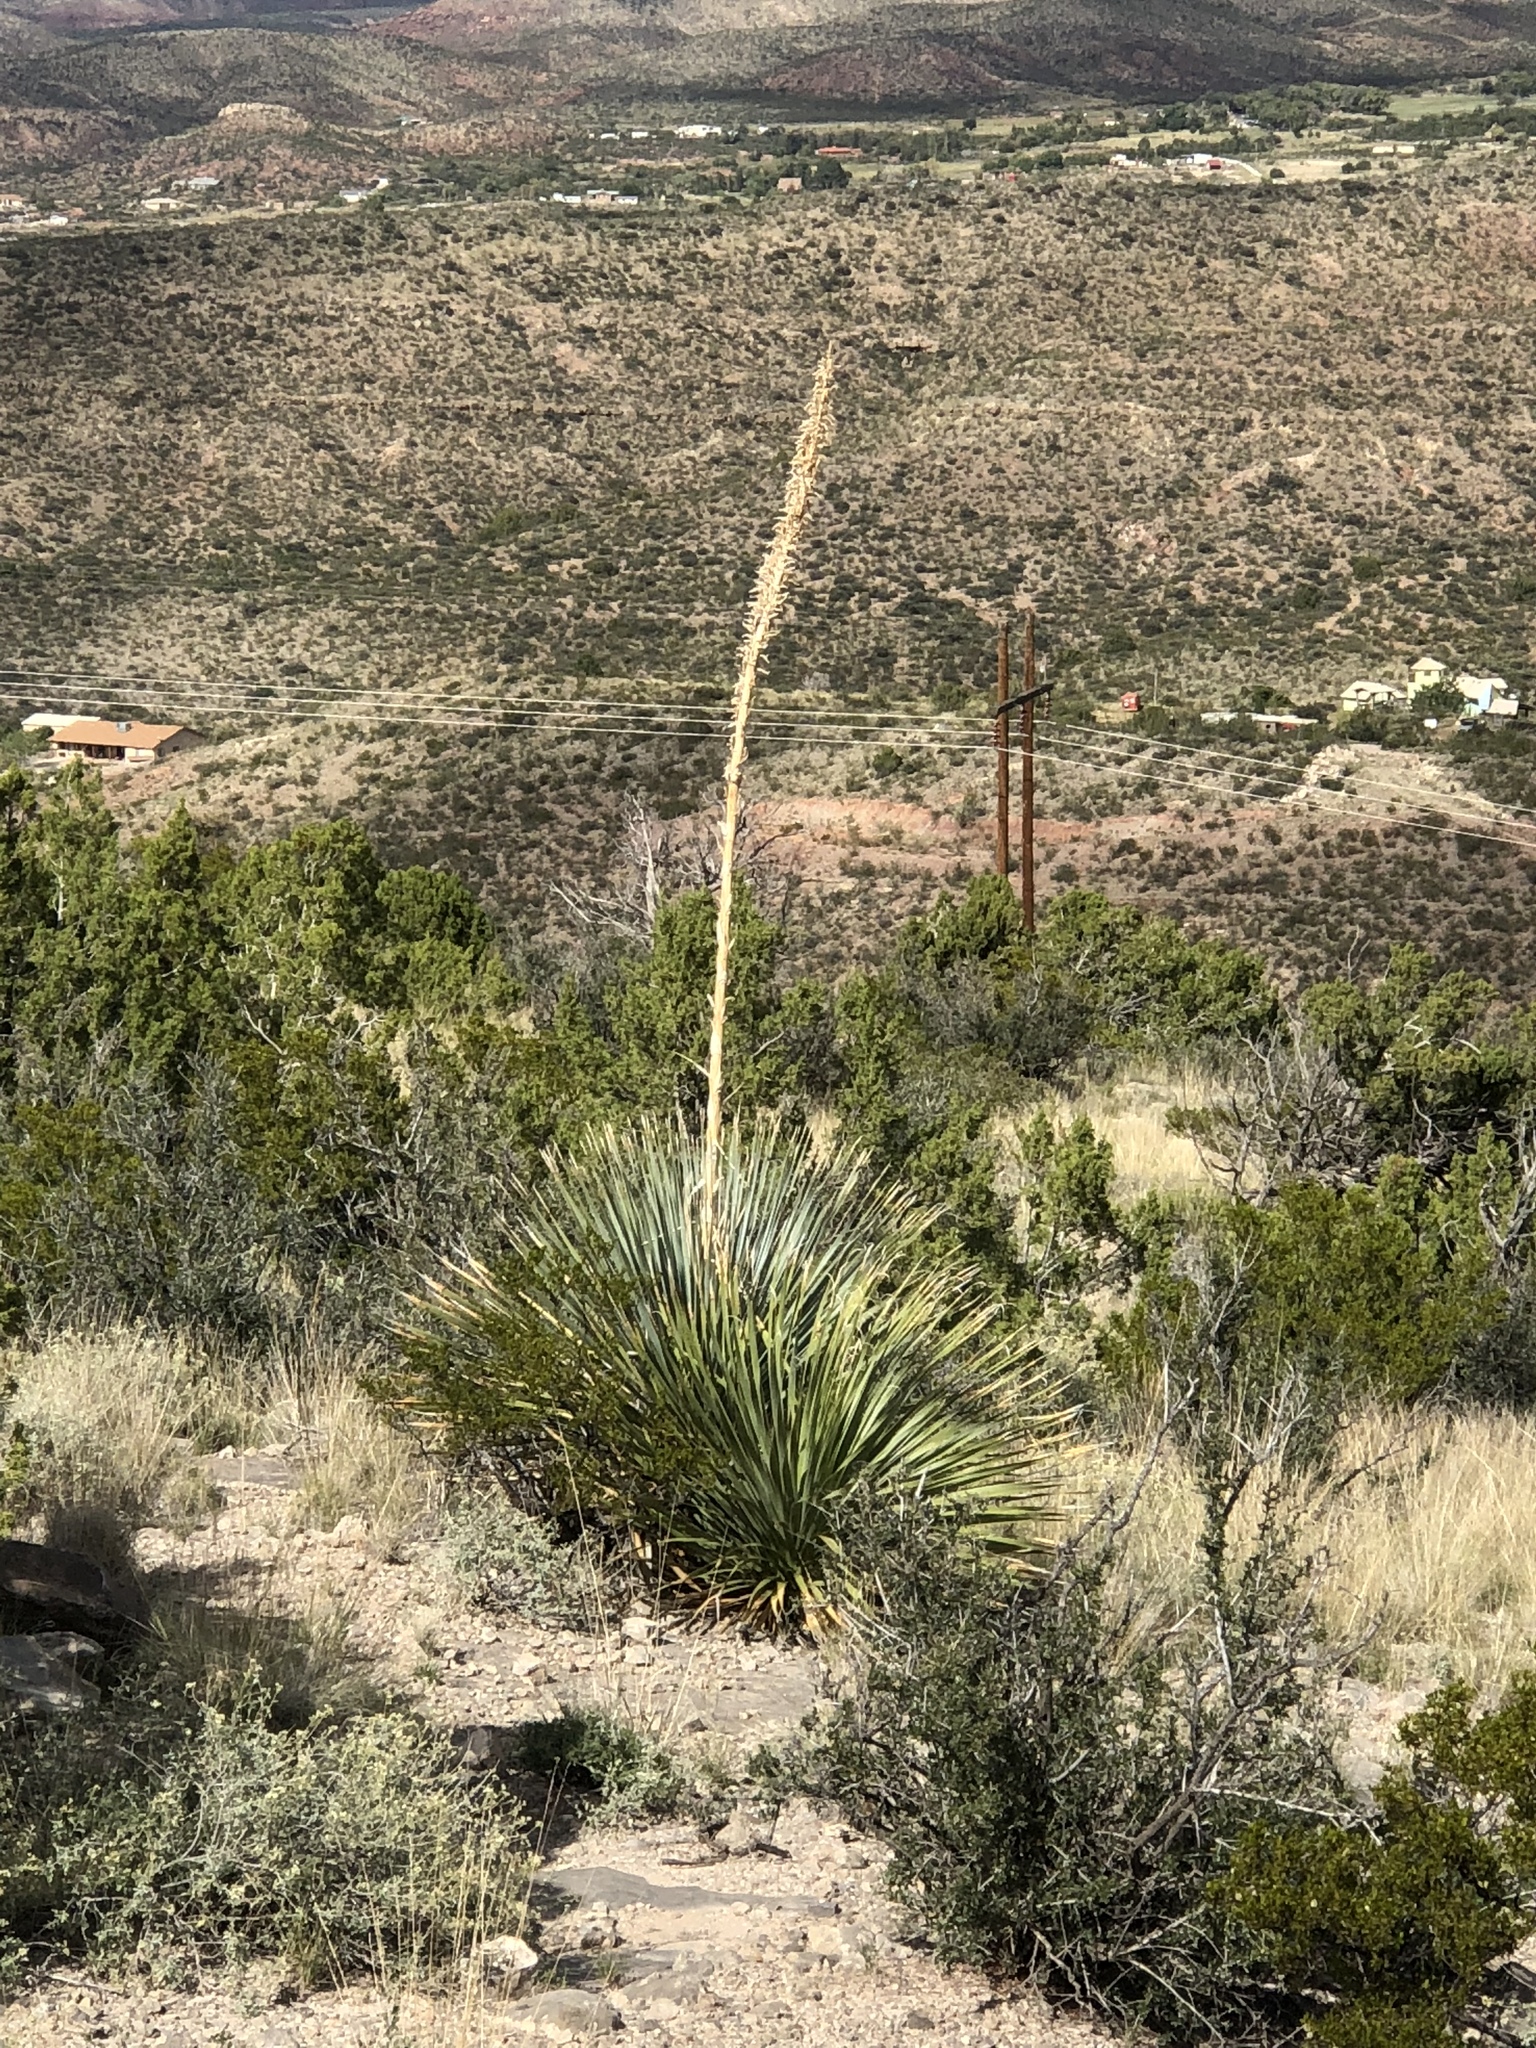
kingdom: Plantae
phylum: Tracheophyta
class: Liliopsida
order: Asparagales
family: Asparagaceae
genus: Dasylirion
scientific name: Dasylirion wheeleri
